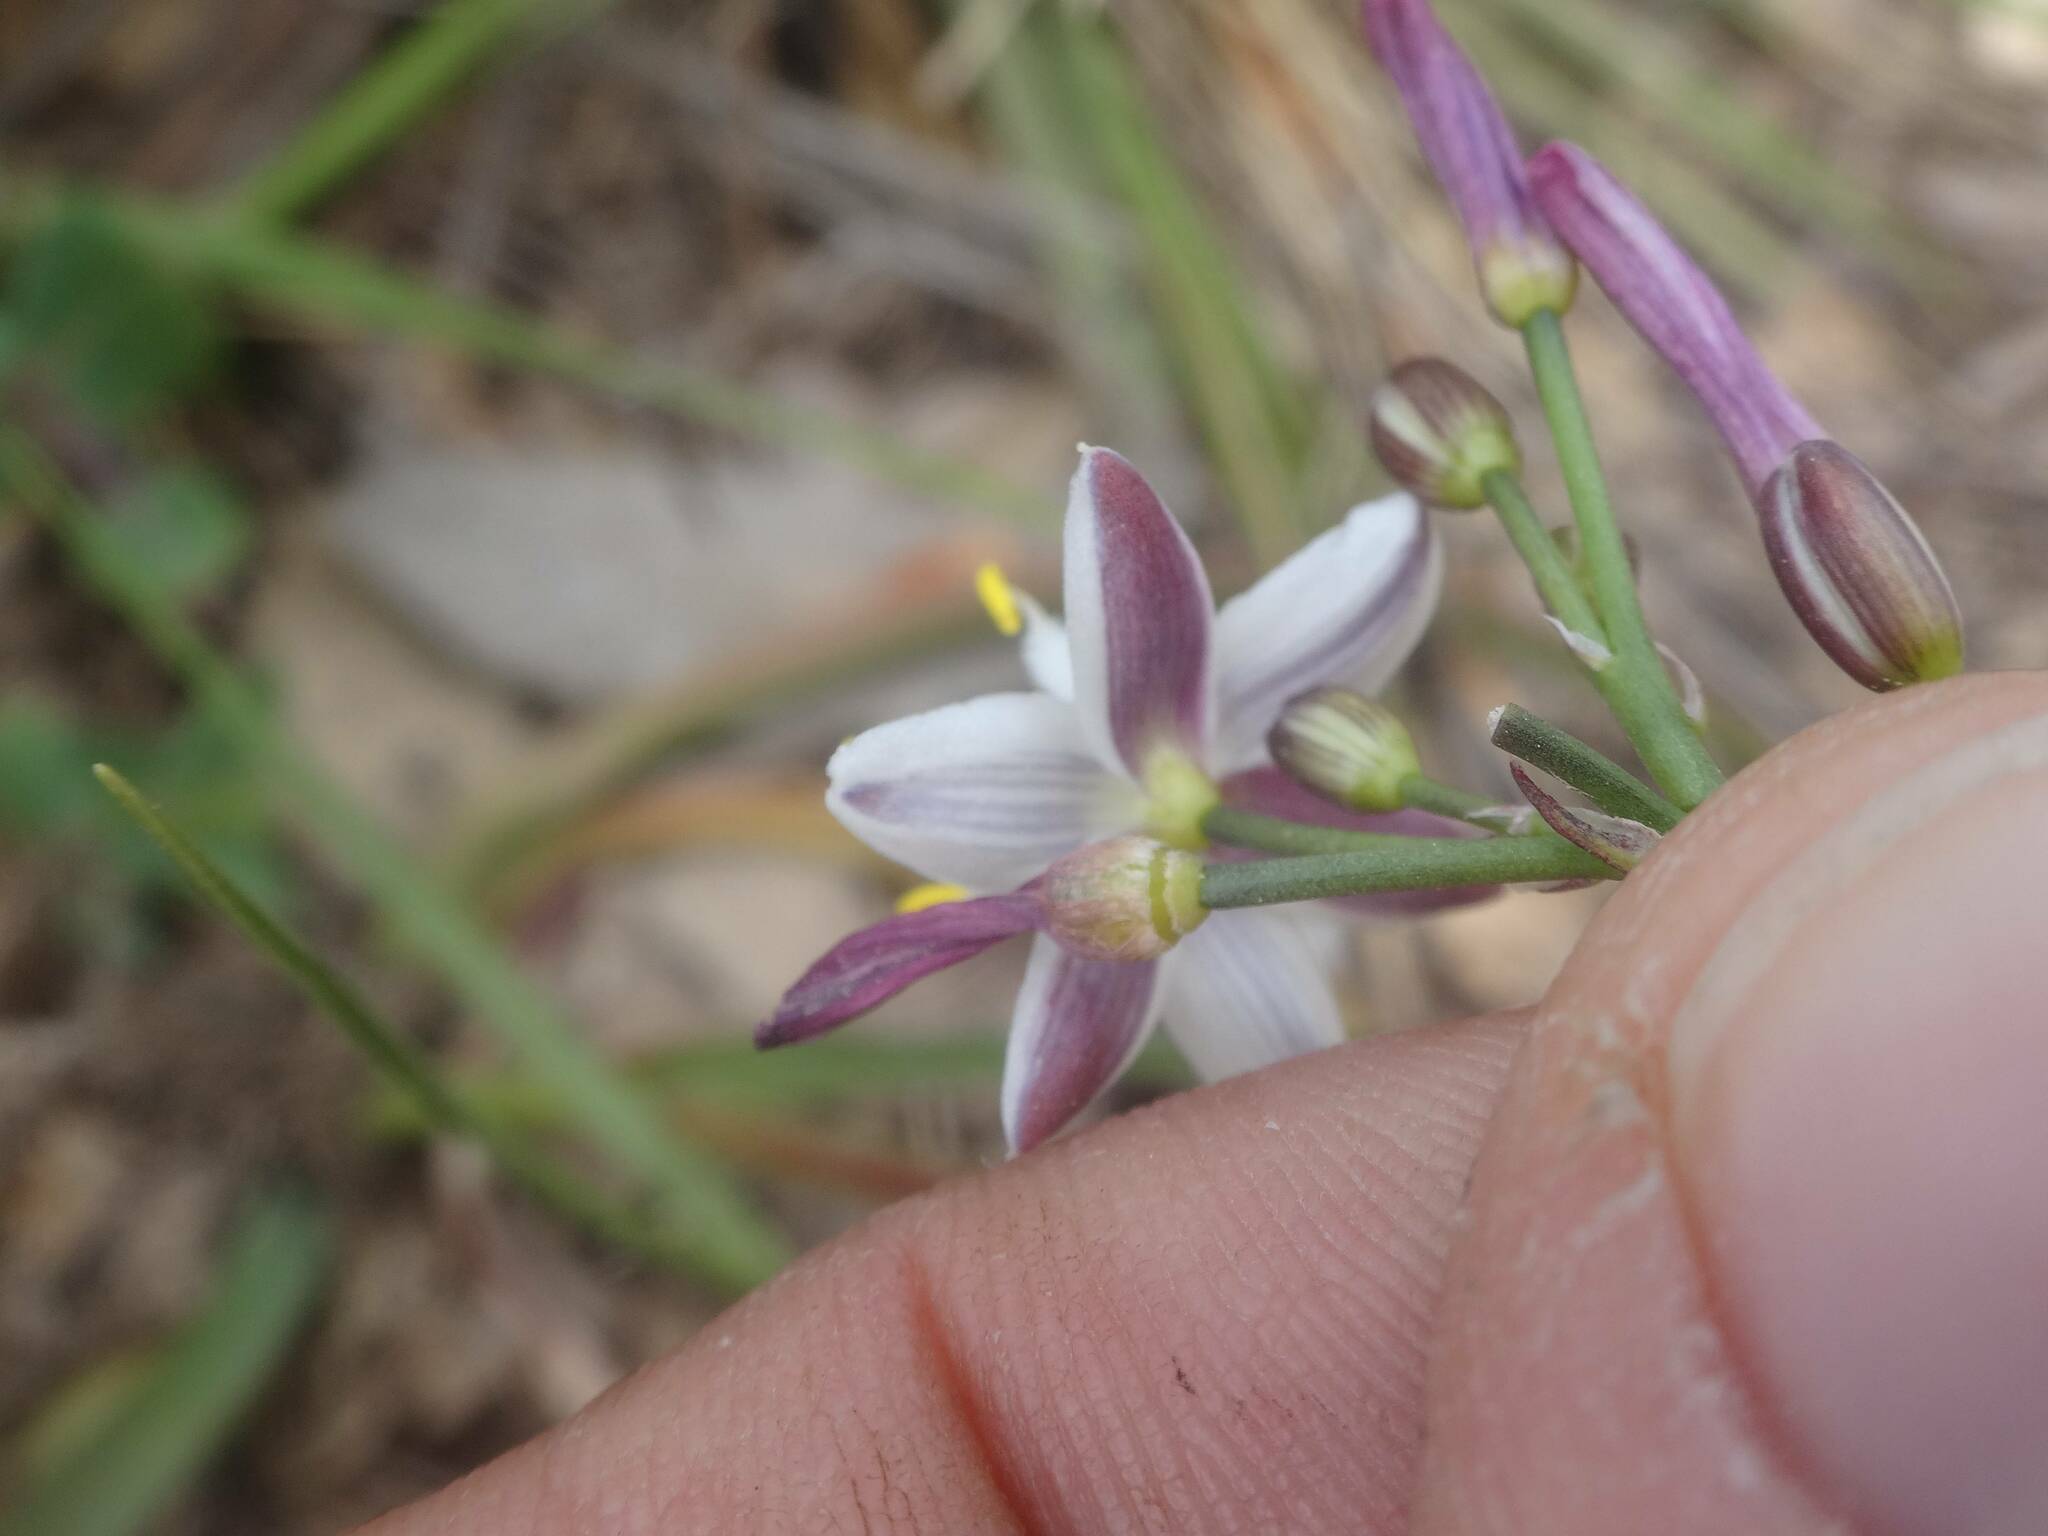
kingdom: Plantae
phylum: Tracheophyta
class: Liliopsida
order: Asparagales
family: Asphodelaceae
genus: Simethis
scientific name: Simethis mattiazzii
